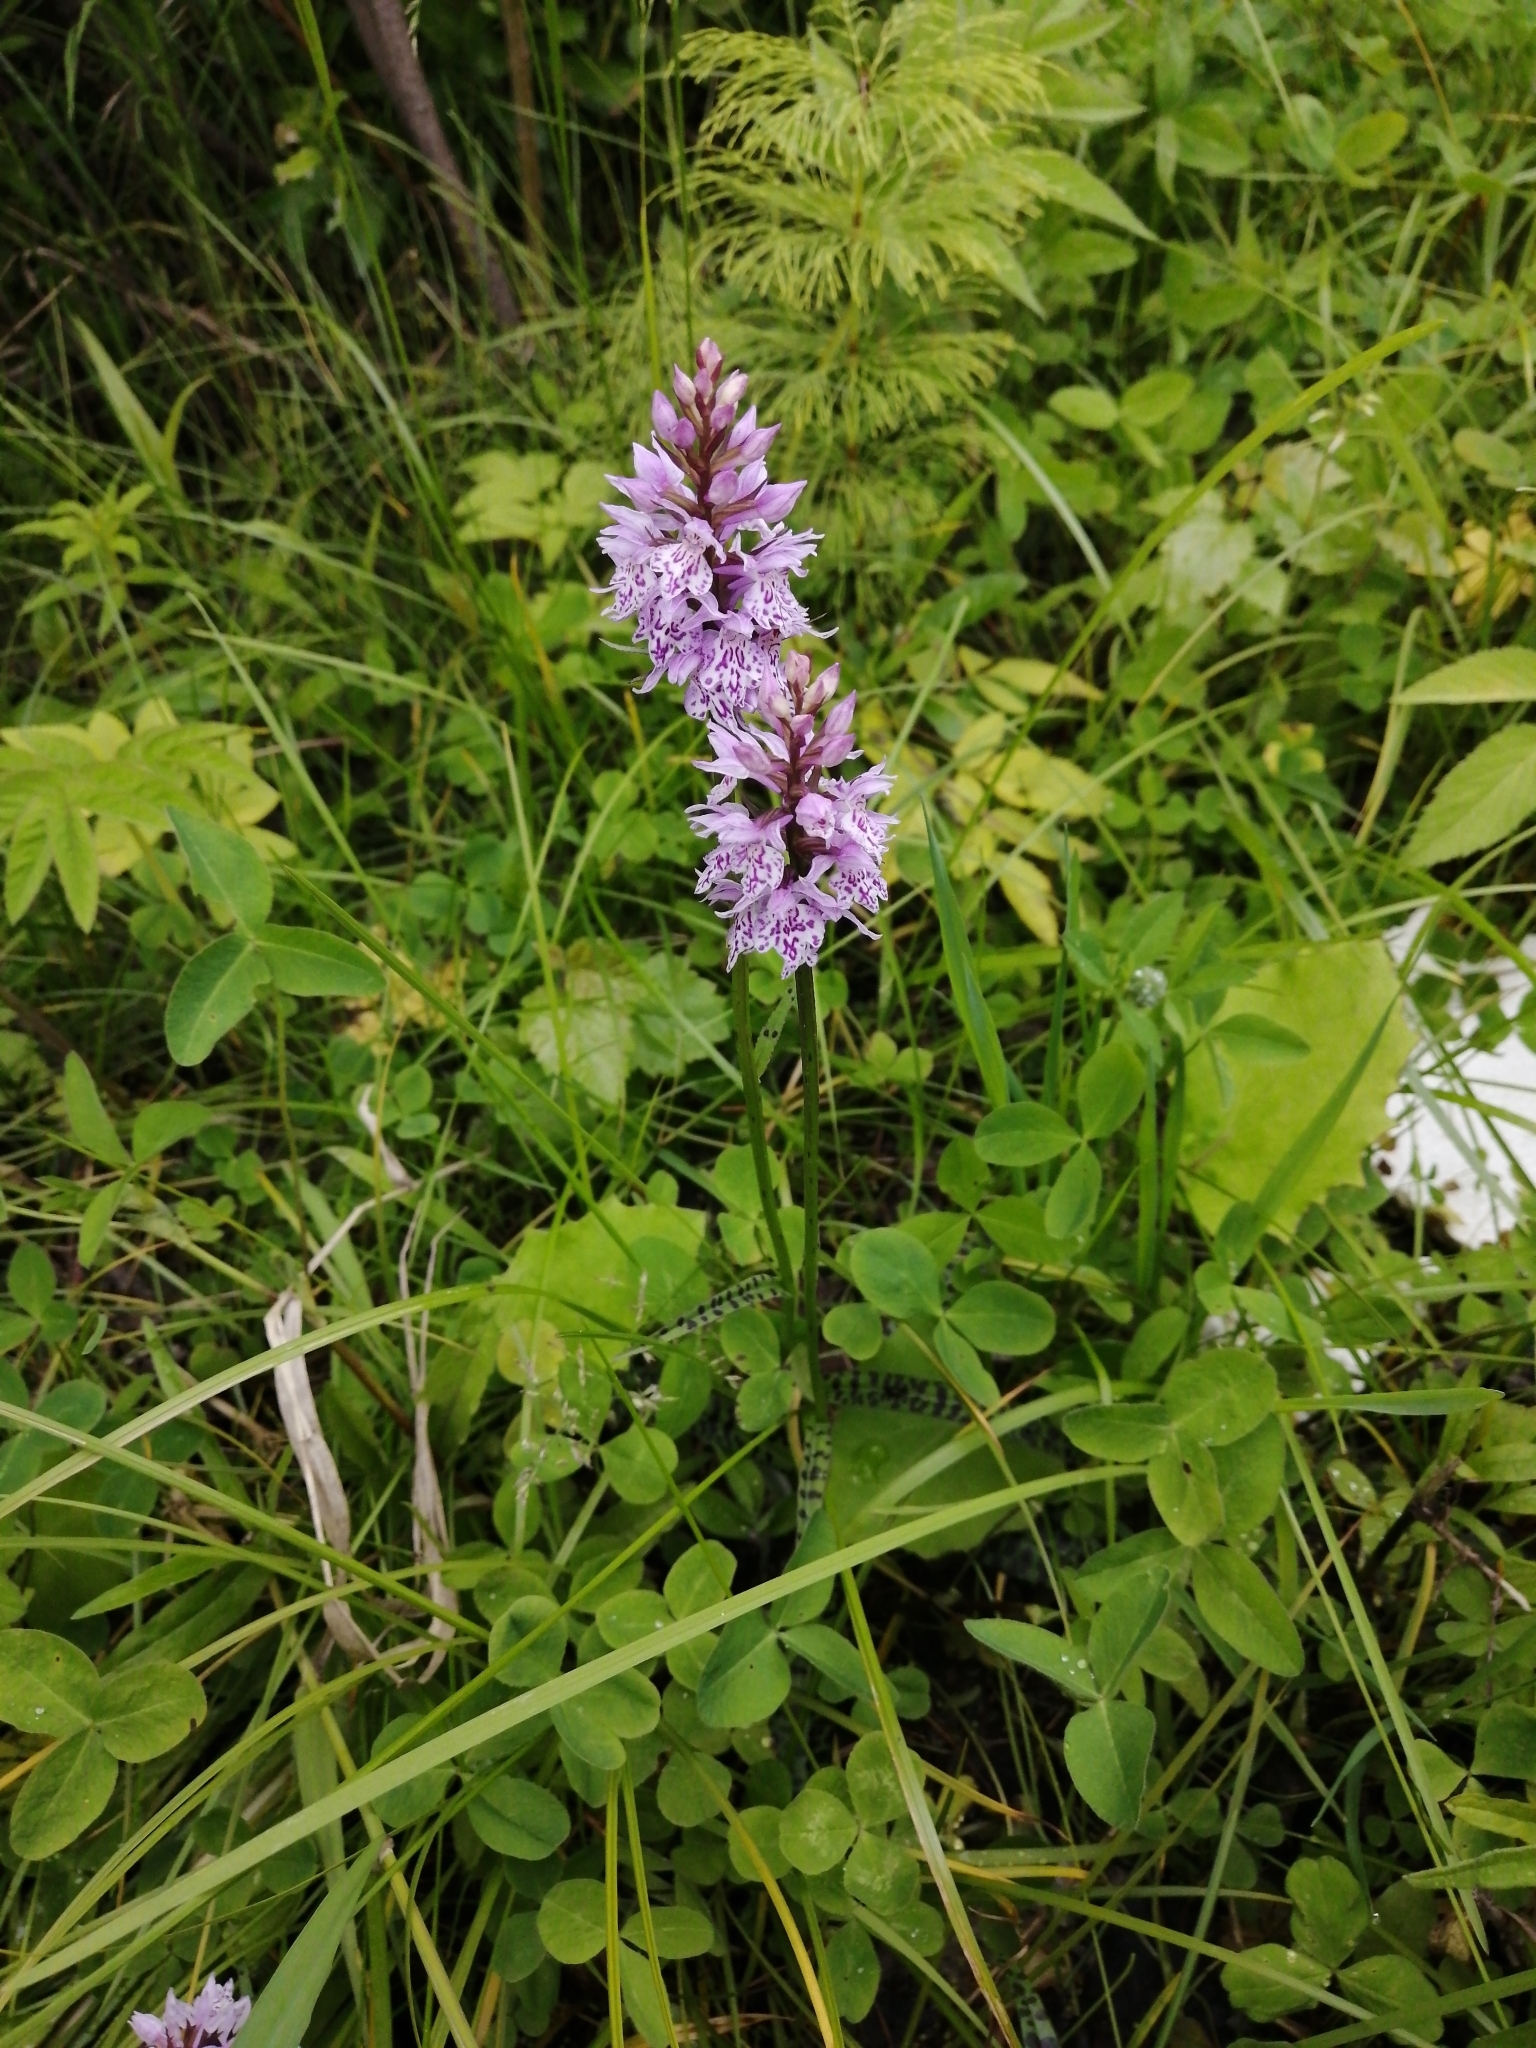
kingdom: Plantae
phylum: Tracheophyta
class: Liliopsida
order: Asparagales
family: Orchidaceae
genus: Dactylorhiza
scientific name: Dactylorhiza maculata
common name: Heath spotted-orchid
